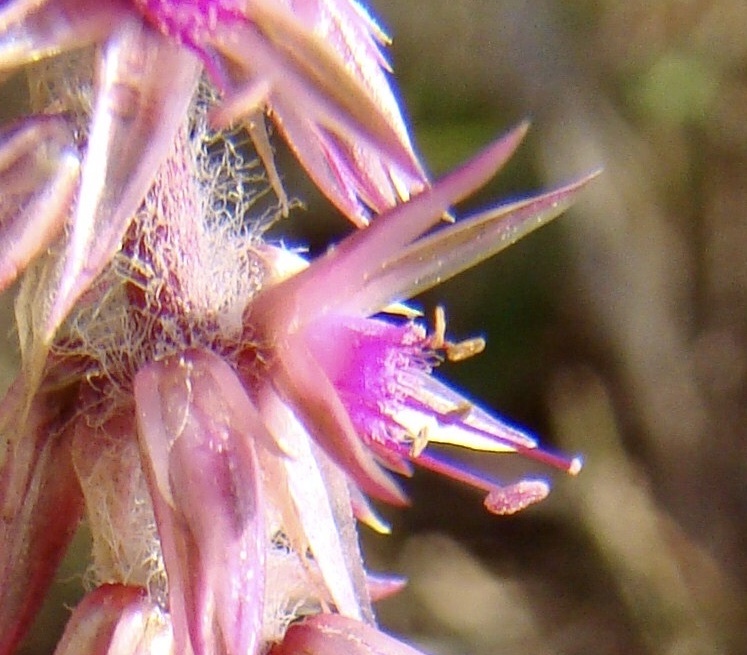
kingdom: Plantae
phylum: Tracheophyta
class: Magnoliopsida
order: Caryophyllales
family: Amaranthaceae
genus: Achyranthes
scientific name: Achyranthes aspera
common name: Devil's horsewhip
